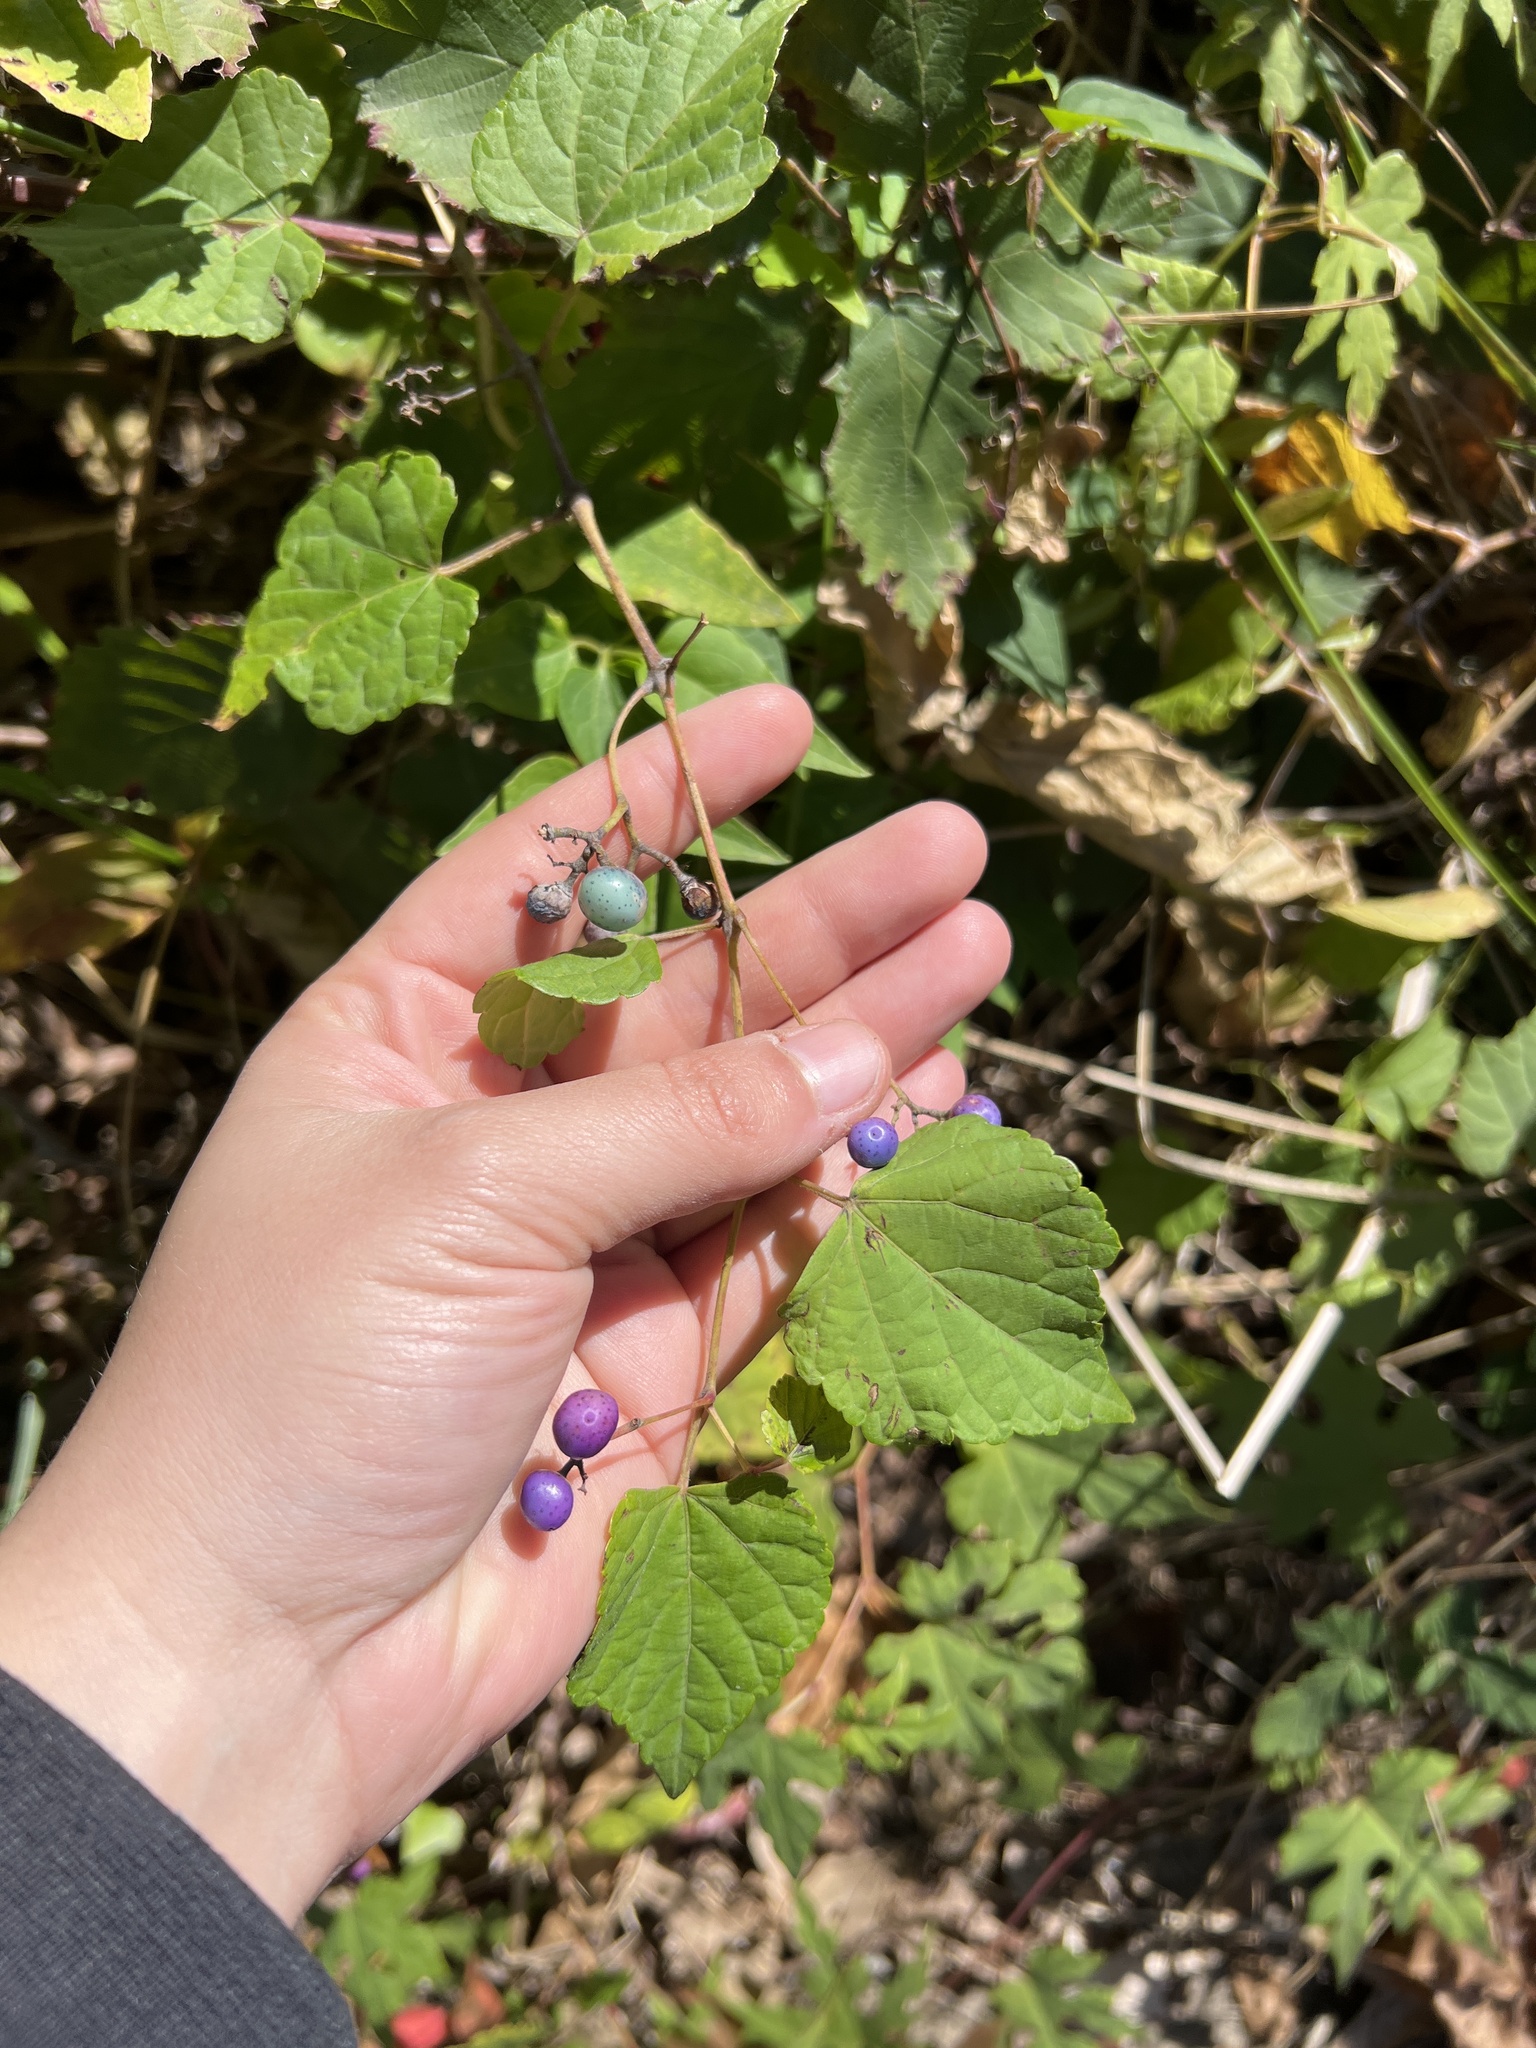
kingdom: Plantae
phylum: Tracheophyta
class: Magnoliopsida
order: Vitales
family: Vitaceae
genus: Ampelopsis
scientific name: Ampelopsis glandulosa
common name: Amur peppervine
